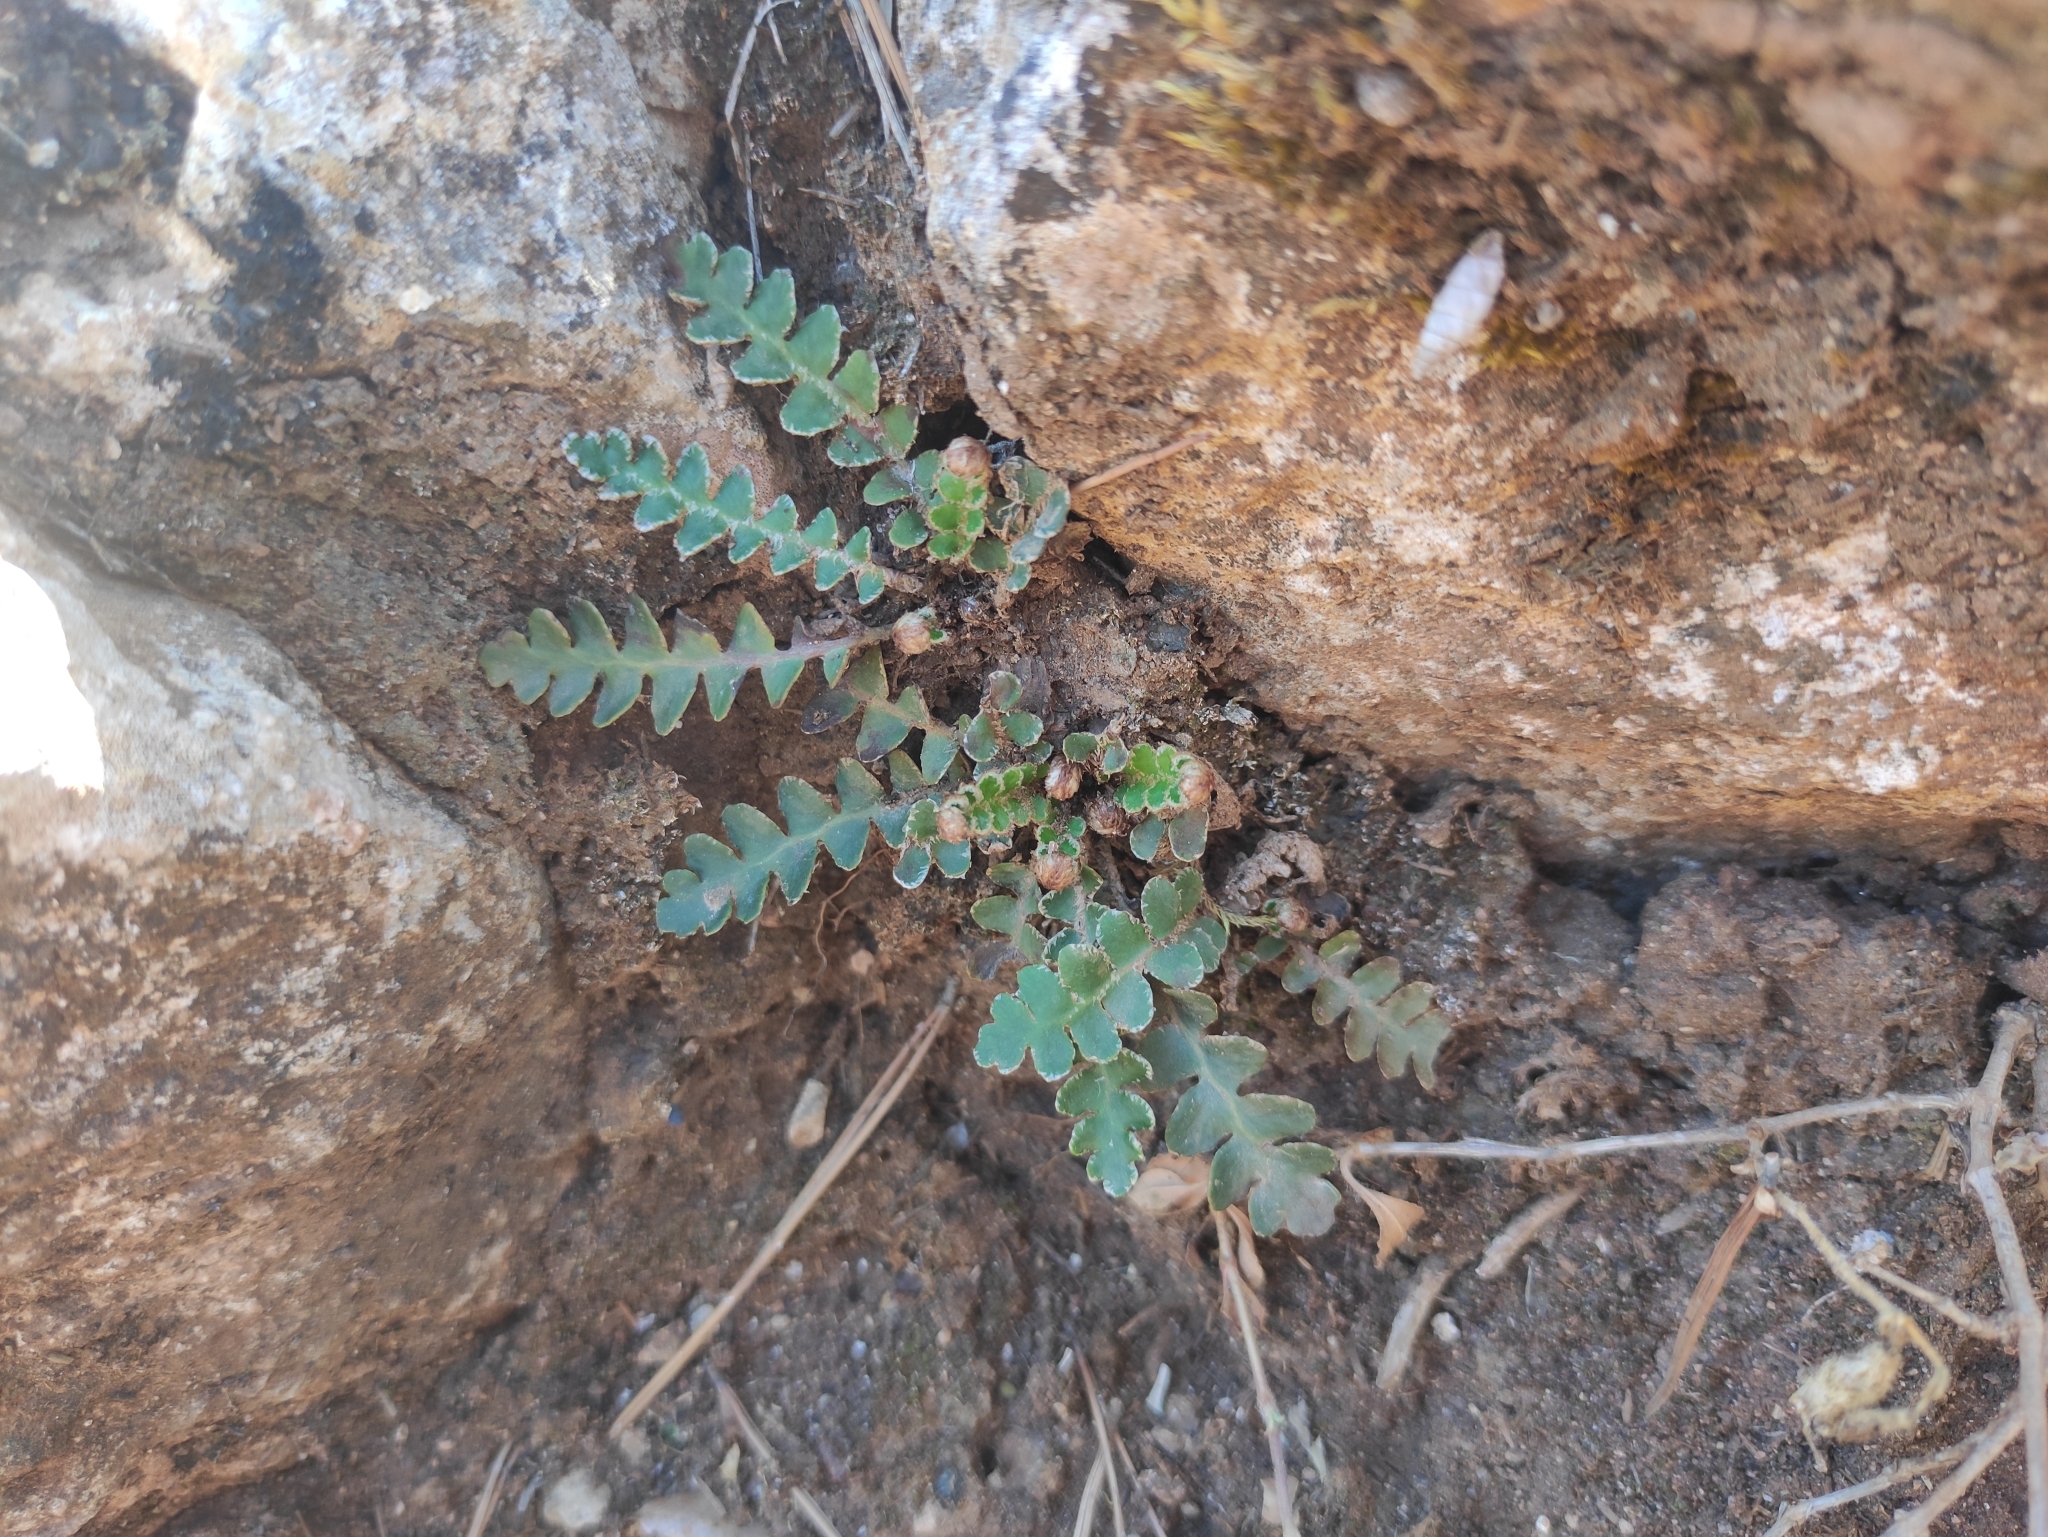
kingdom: Plantae
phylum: Tracheophyta
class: Polypodiopsida
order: Polypodiales
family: Aspleniaceae
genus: Asplenium
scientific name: Asplenium ceterach
